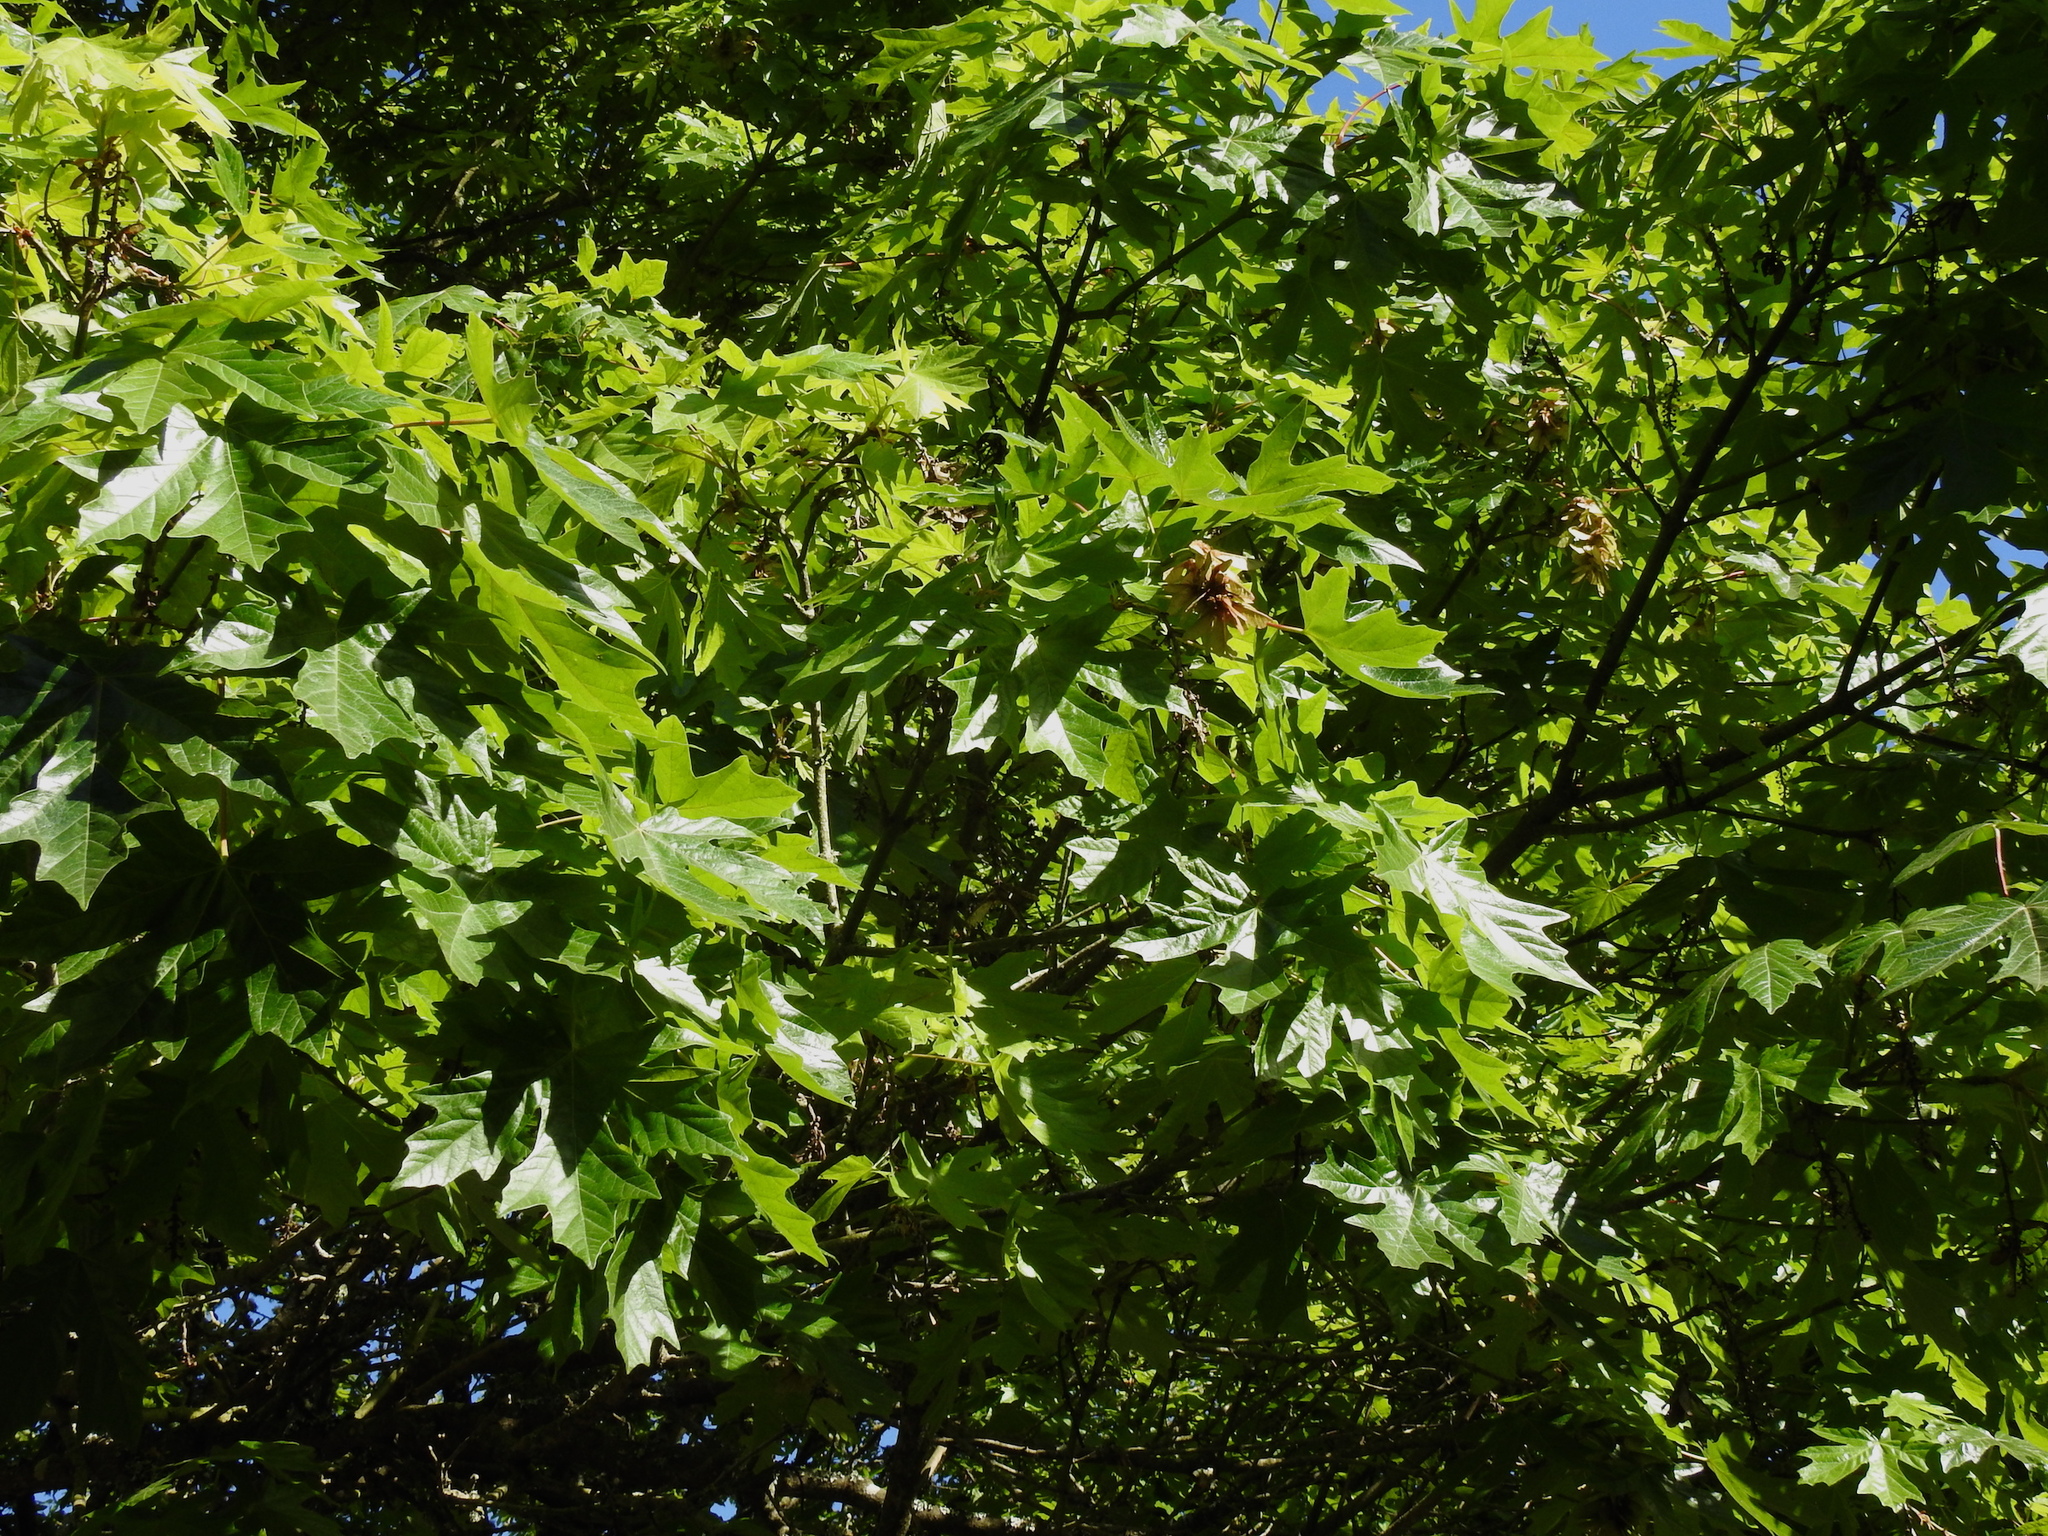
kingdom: Plantae
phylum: Tracheophyta
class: Magnoliopsida
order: Sapindales
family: Sapindaceae
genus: Acer
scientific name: Acer macrophyllum
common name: Oregon maple
